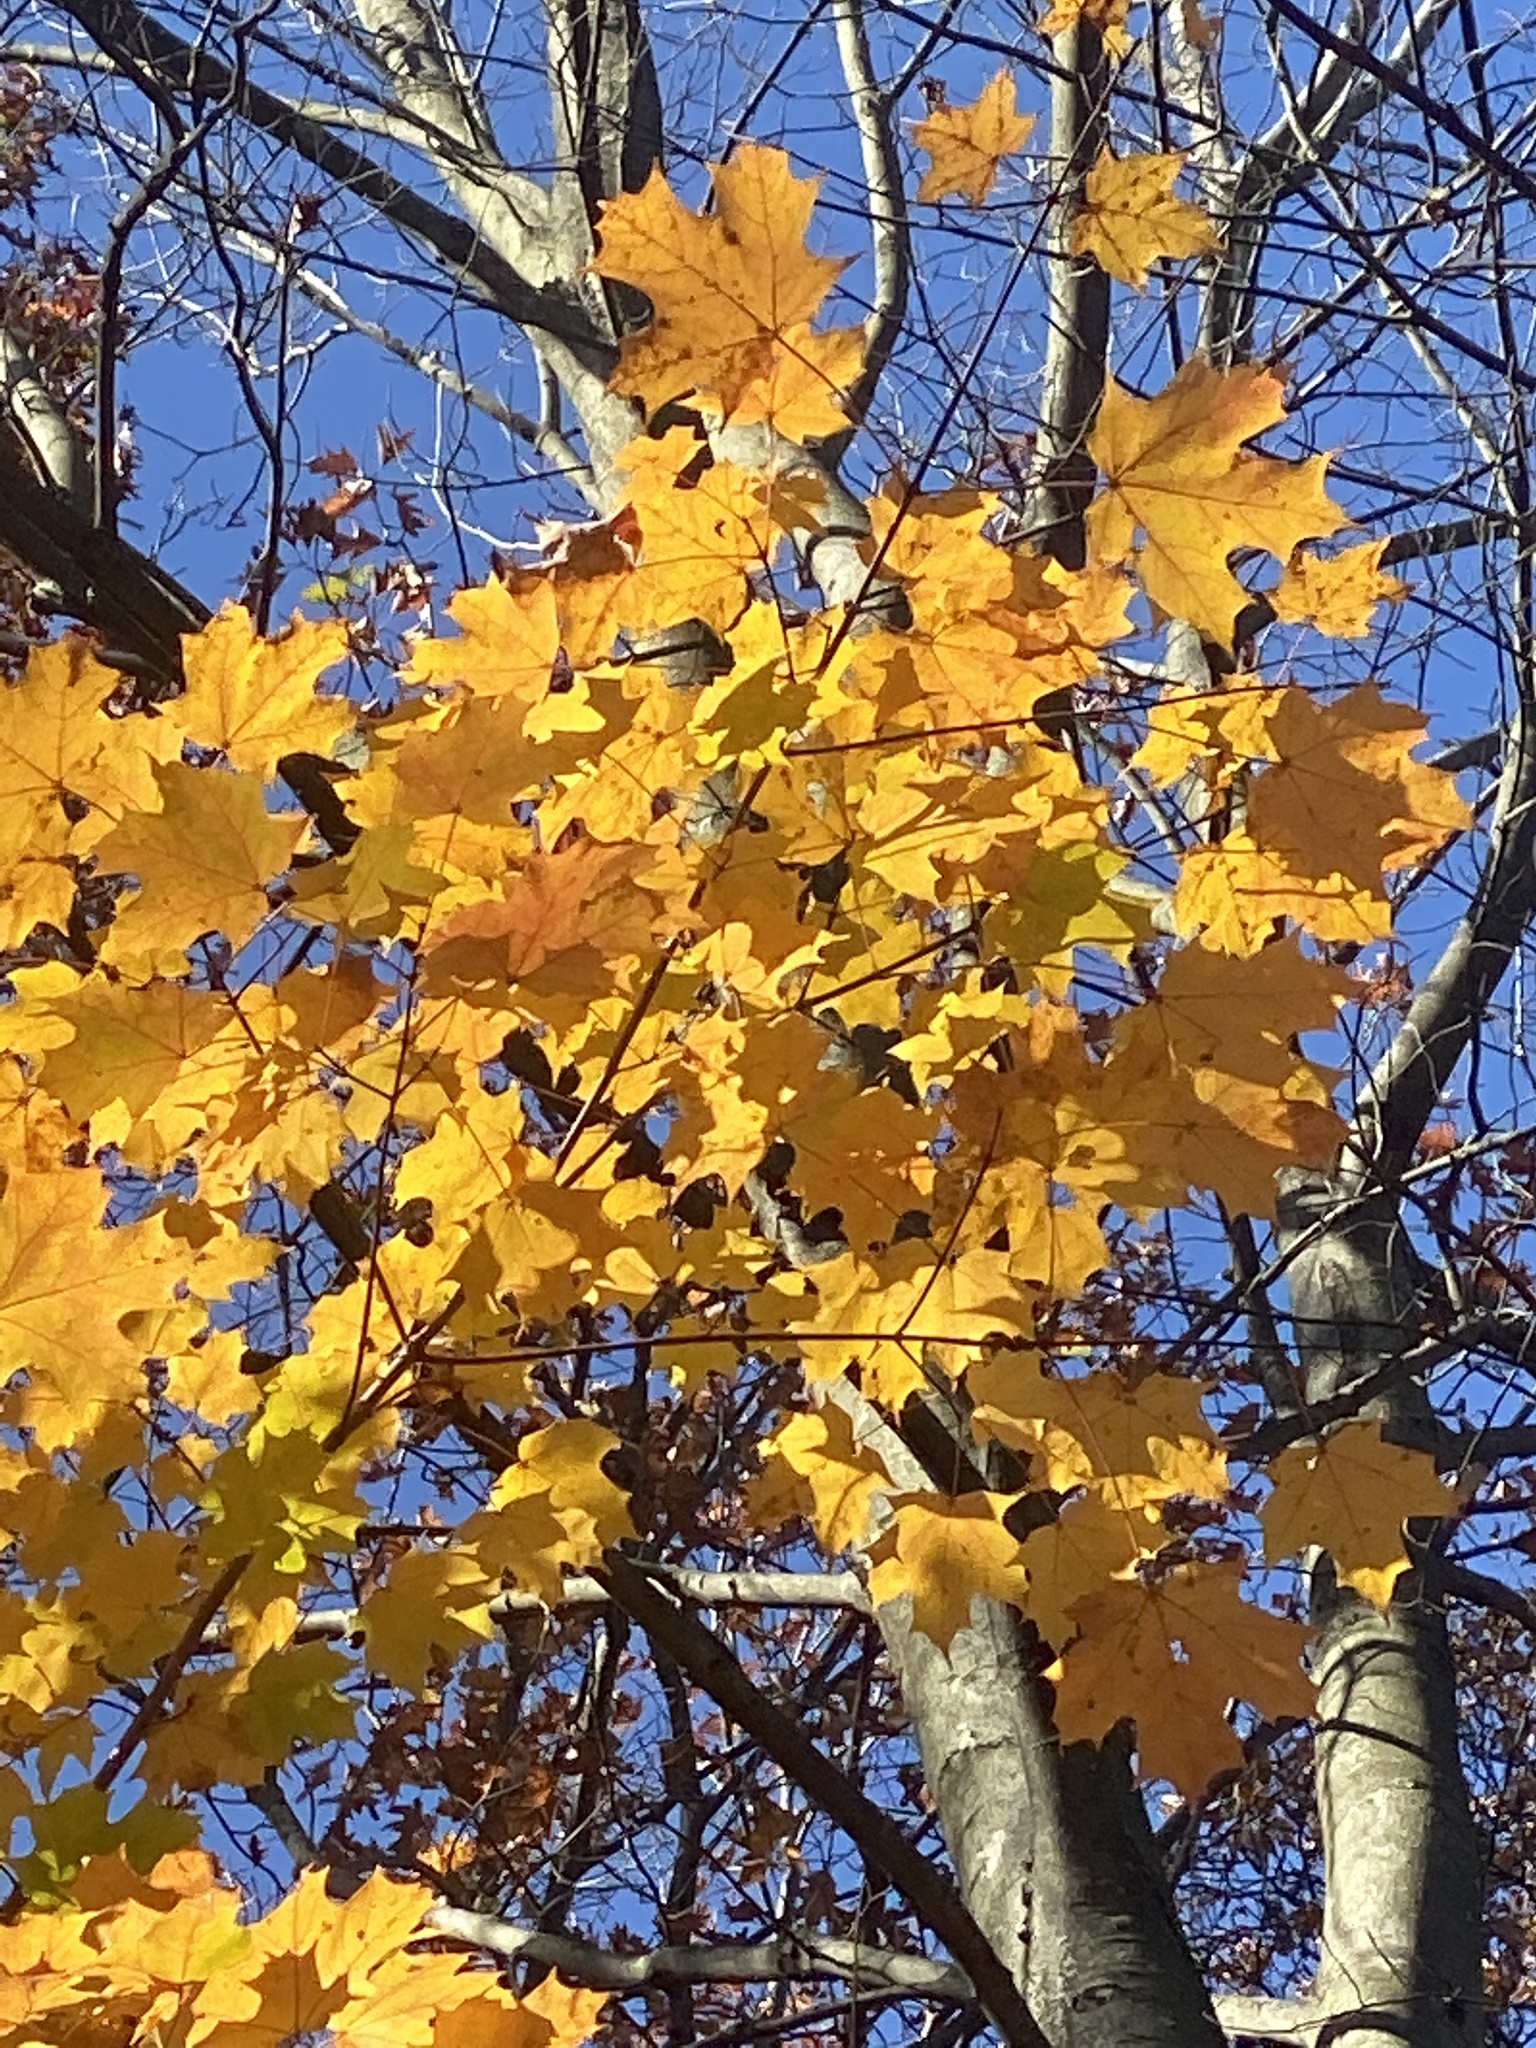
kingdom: Plantae
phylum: Tracheophyta
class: Magnoliopsida
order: Sapindales
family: Sapindaceae
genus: Acer
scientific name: Acer saccharum
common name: Sugar maple
